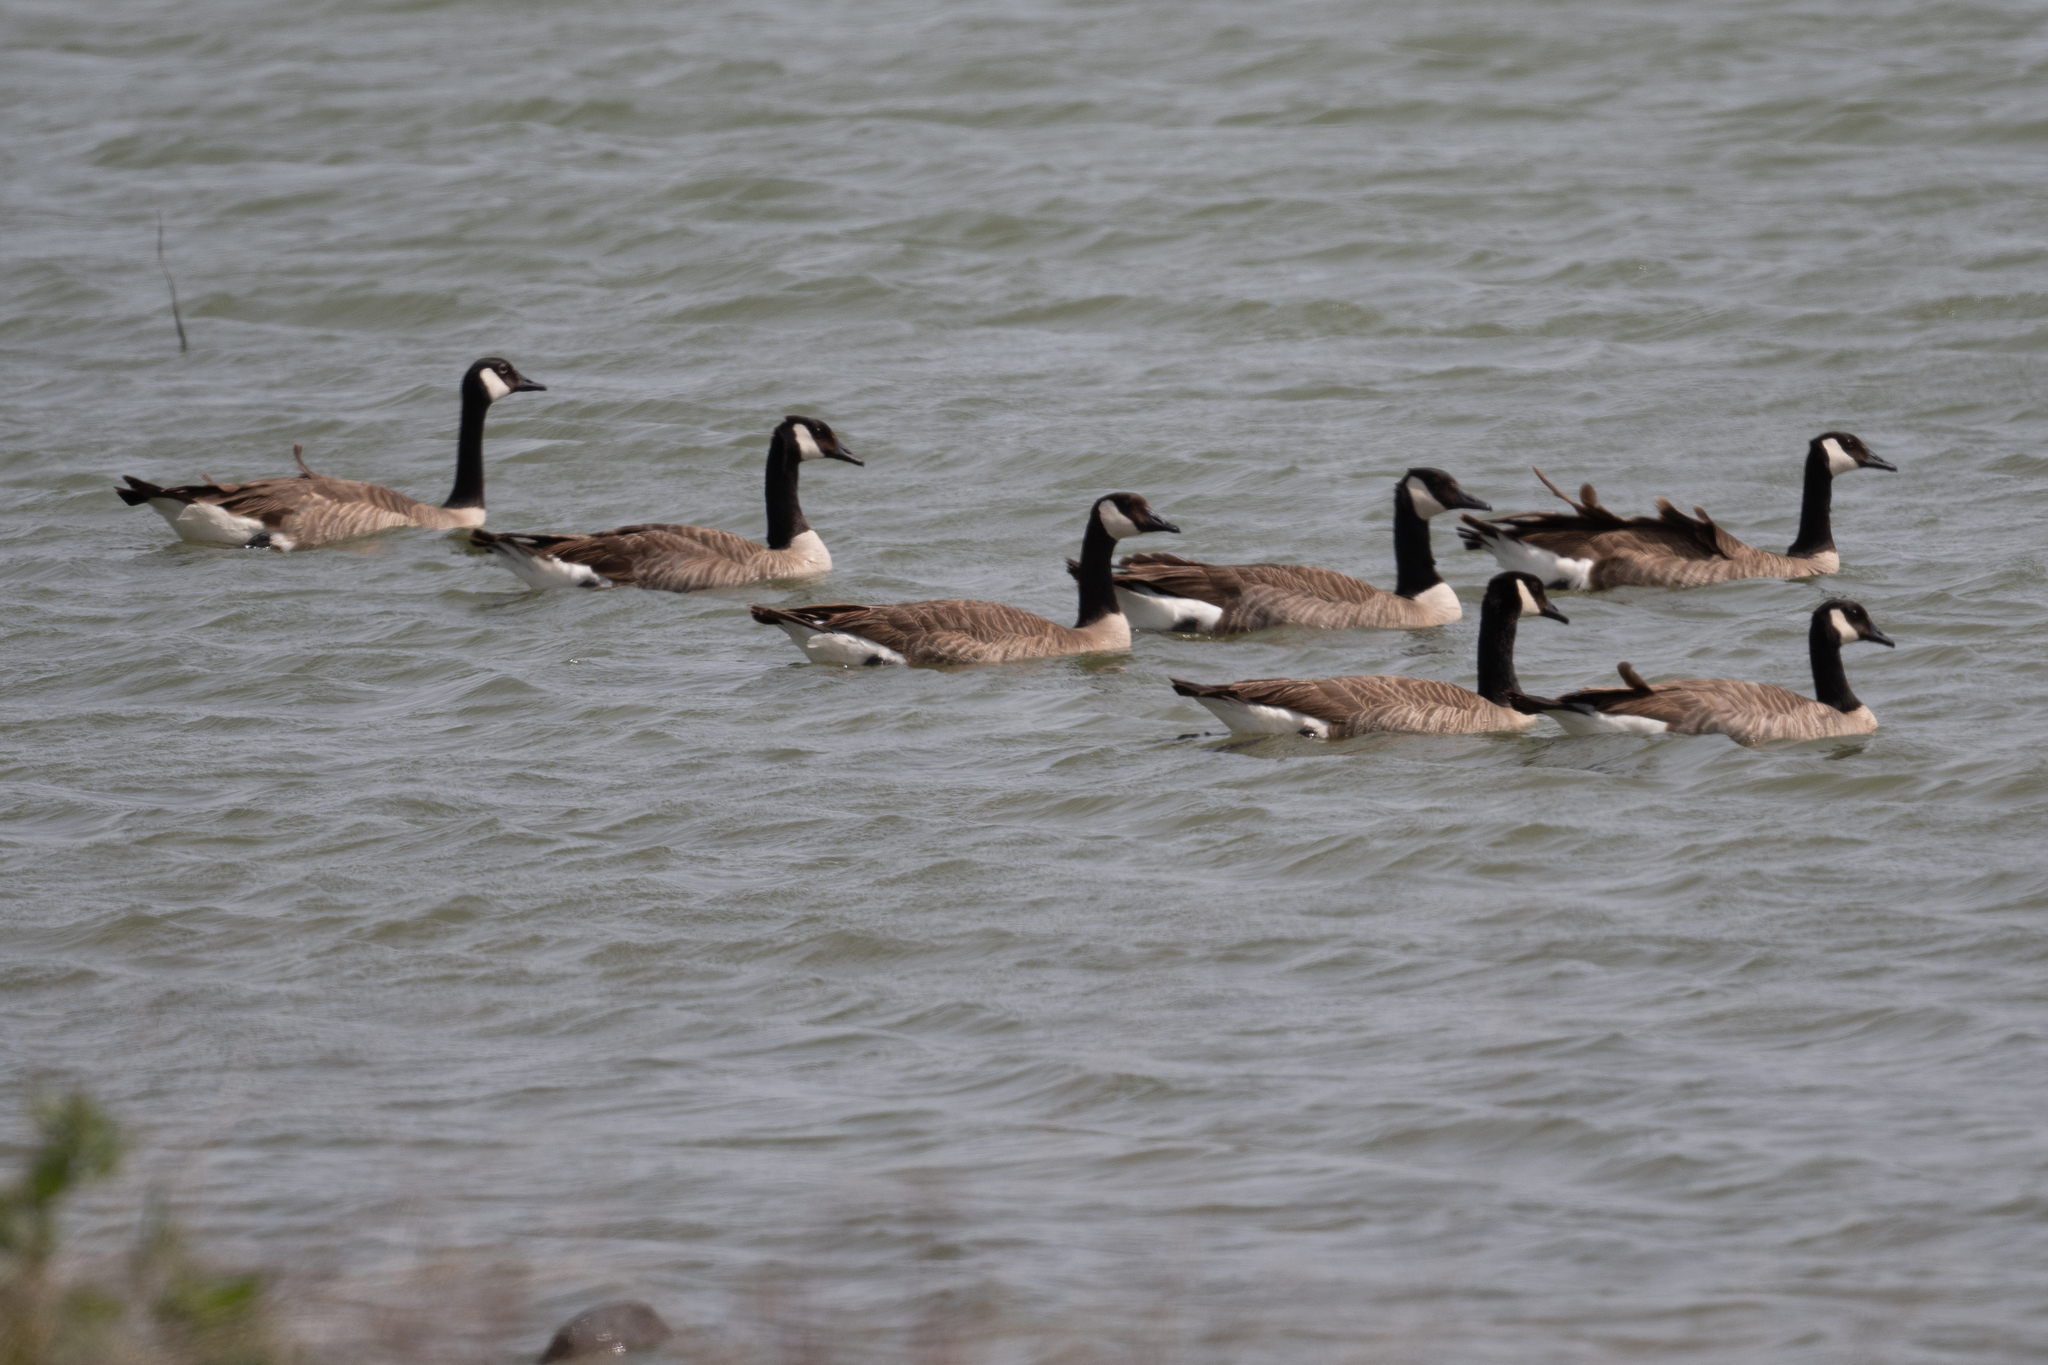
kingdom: Animalia
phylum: Chordata
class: Aves
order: Anseriformes
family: Anatidae
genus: Branta
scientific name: Branta canadensis
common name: Canada goose
